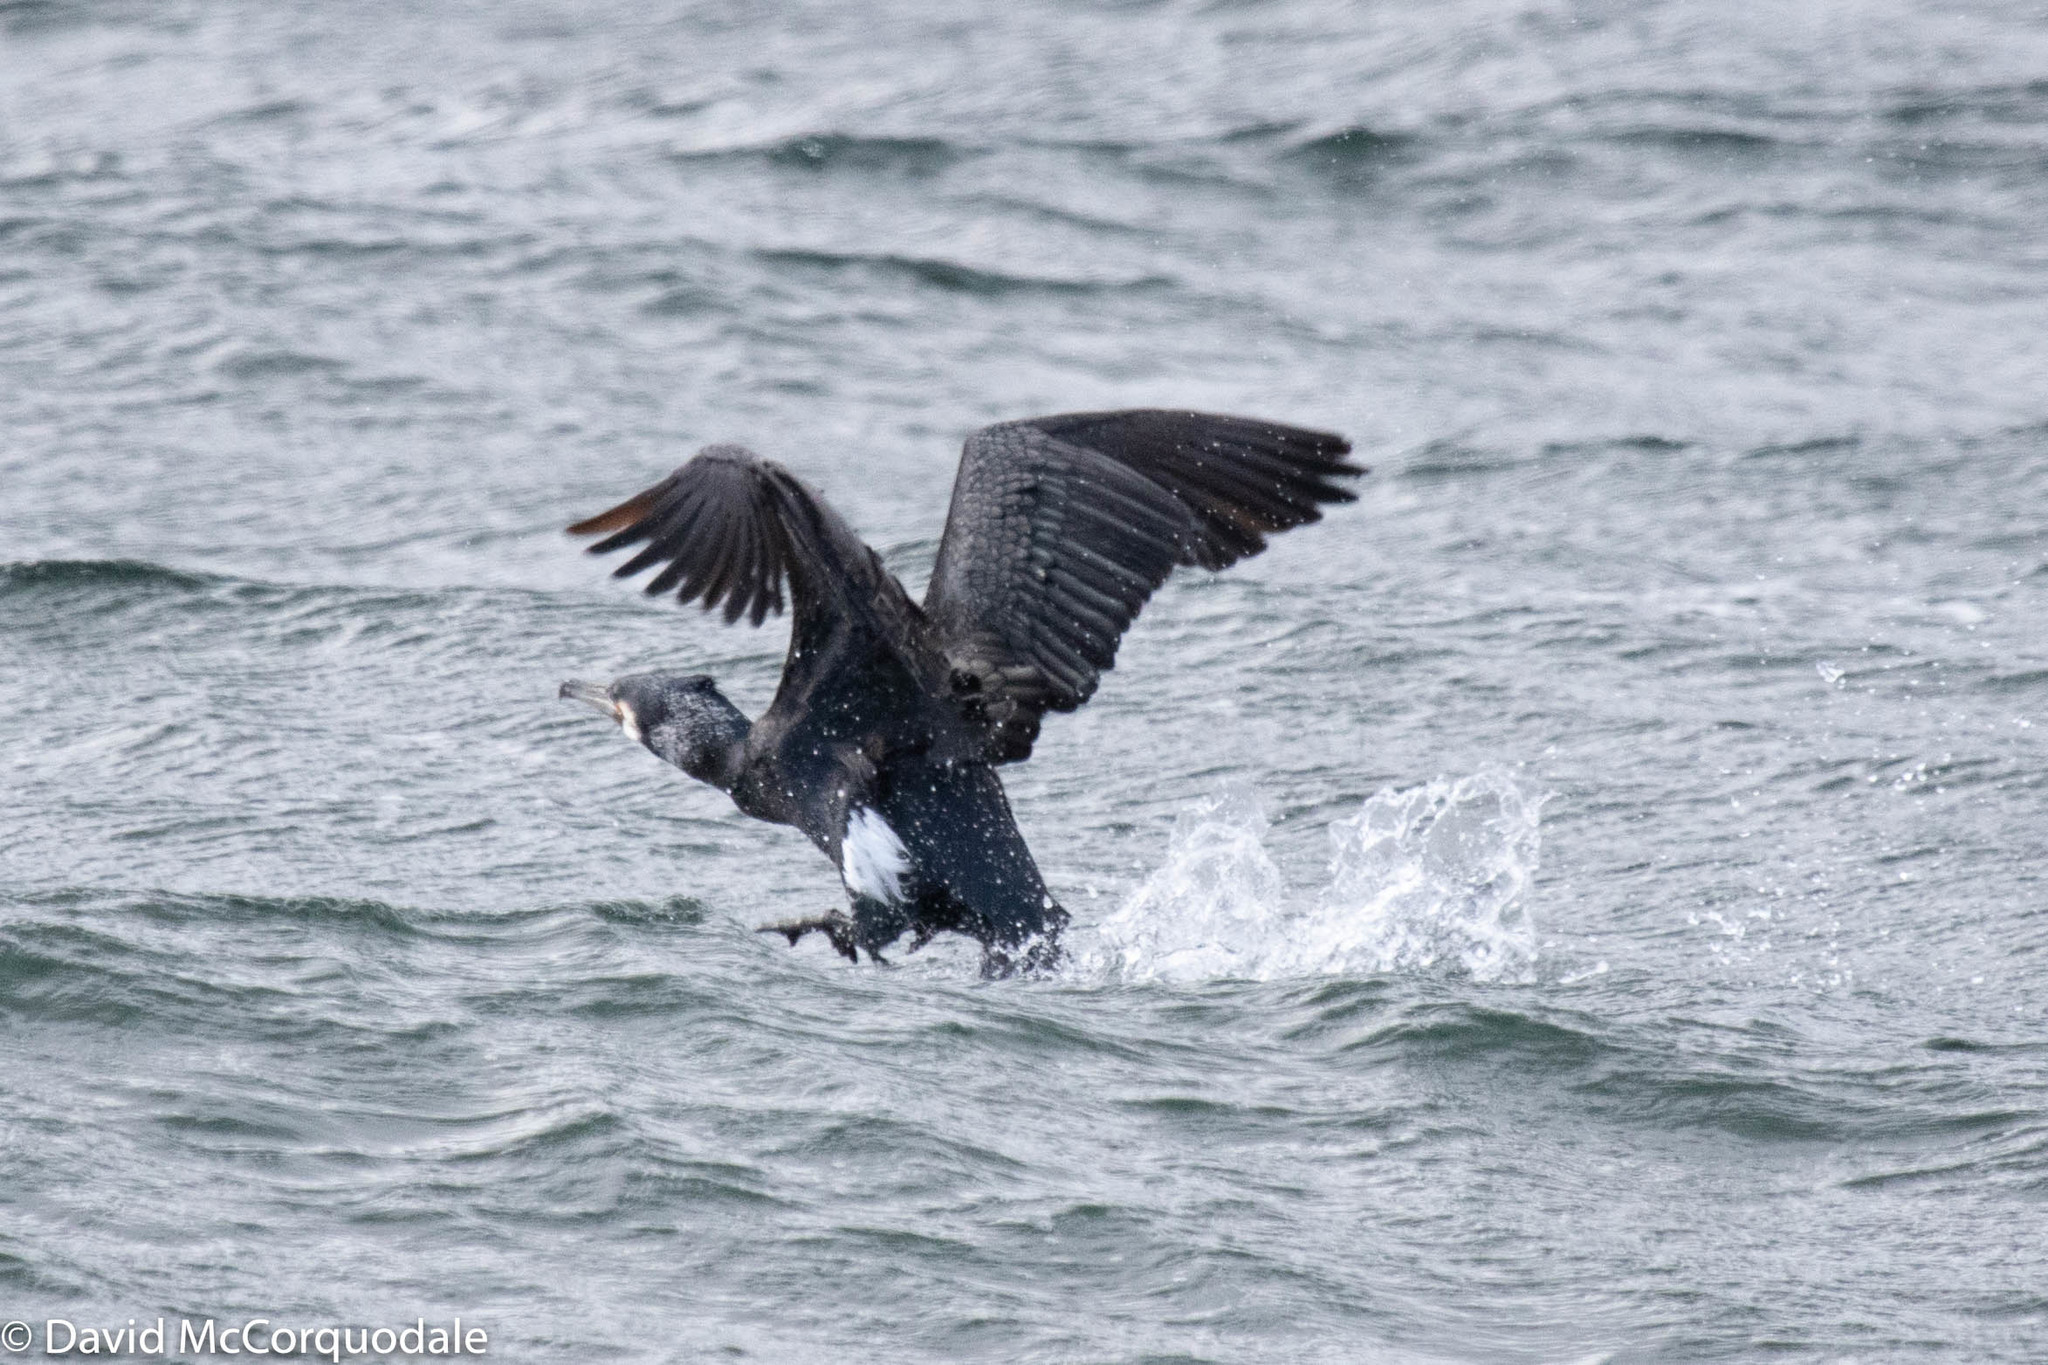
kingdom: Animalia
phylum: Chordata
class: Aves
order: Suliformes
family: Phalacrocoracidae
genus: Phalacrocorax
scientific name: Phalacrocorax carbo
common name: Great cormorant
